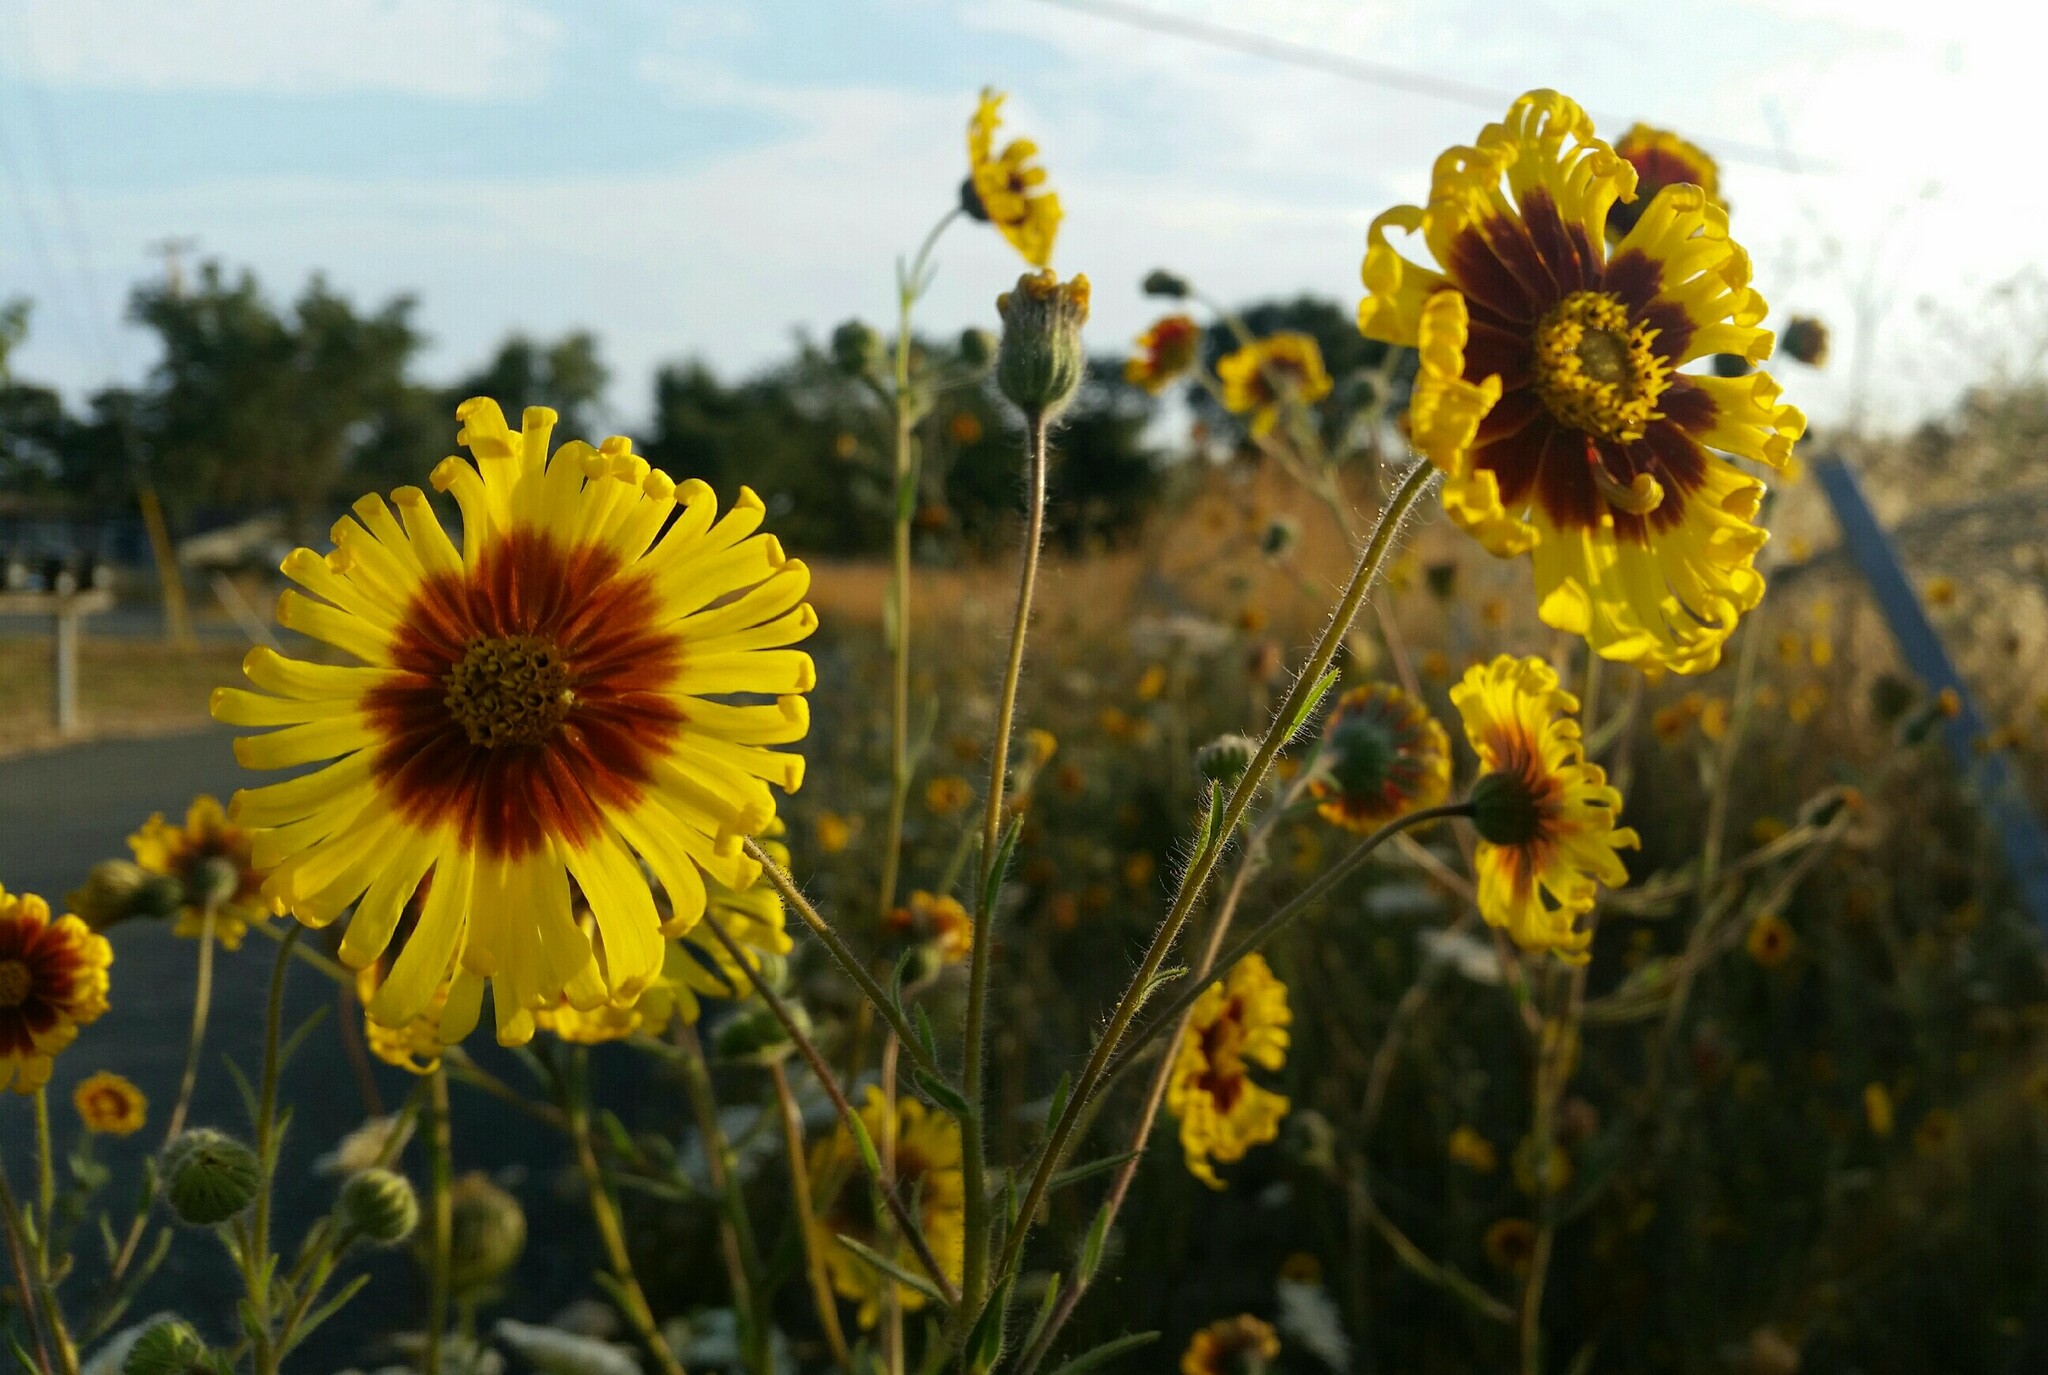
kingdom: Plantae
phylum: Tracheophyta
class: Magnoliopsida
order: Asterales
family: Asteraceae
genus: Madia
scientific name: Madia elegans
